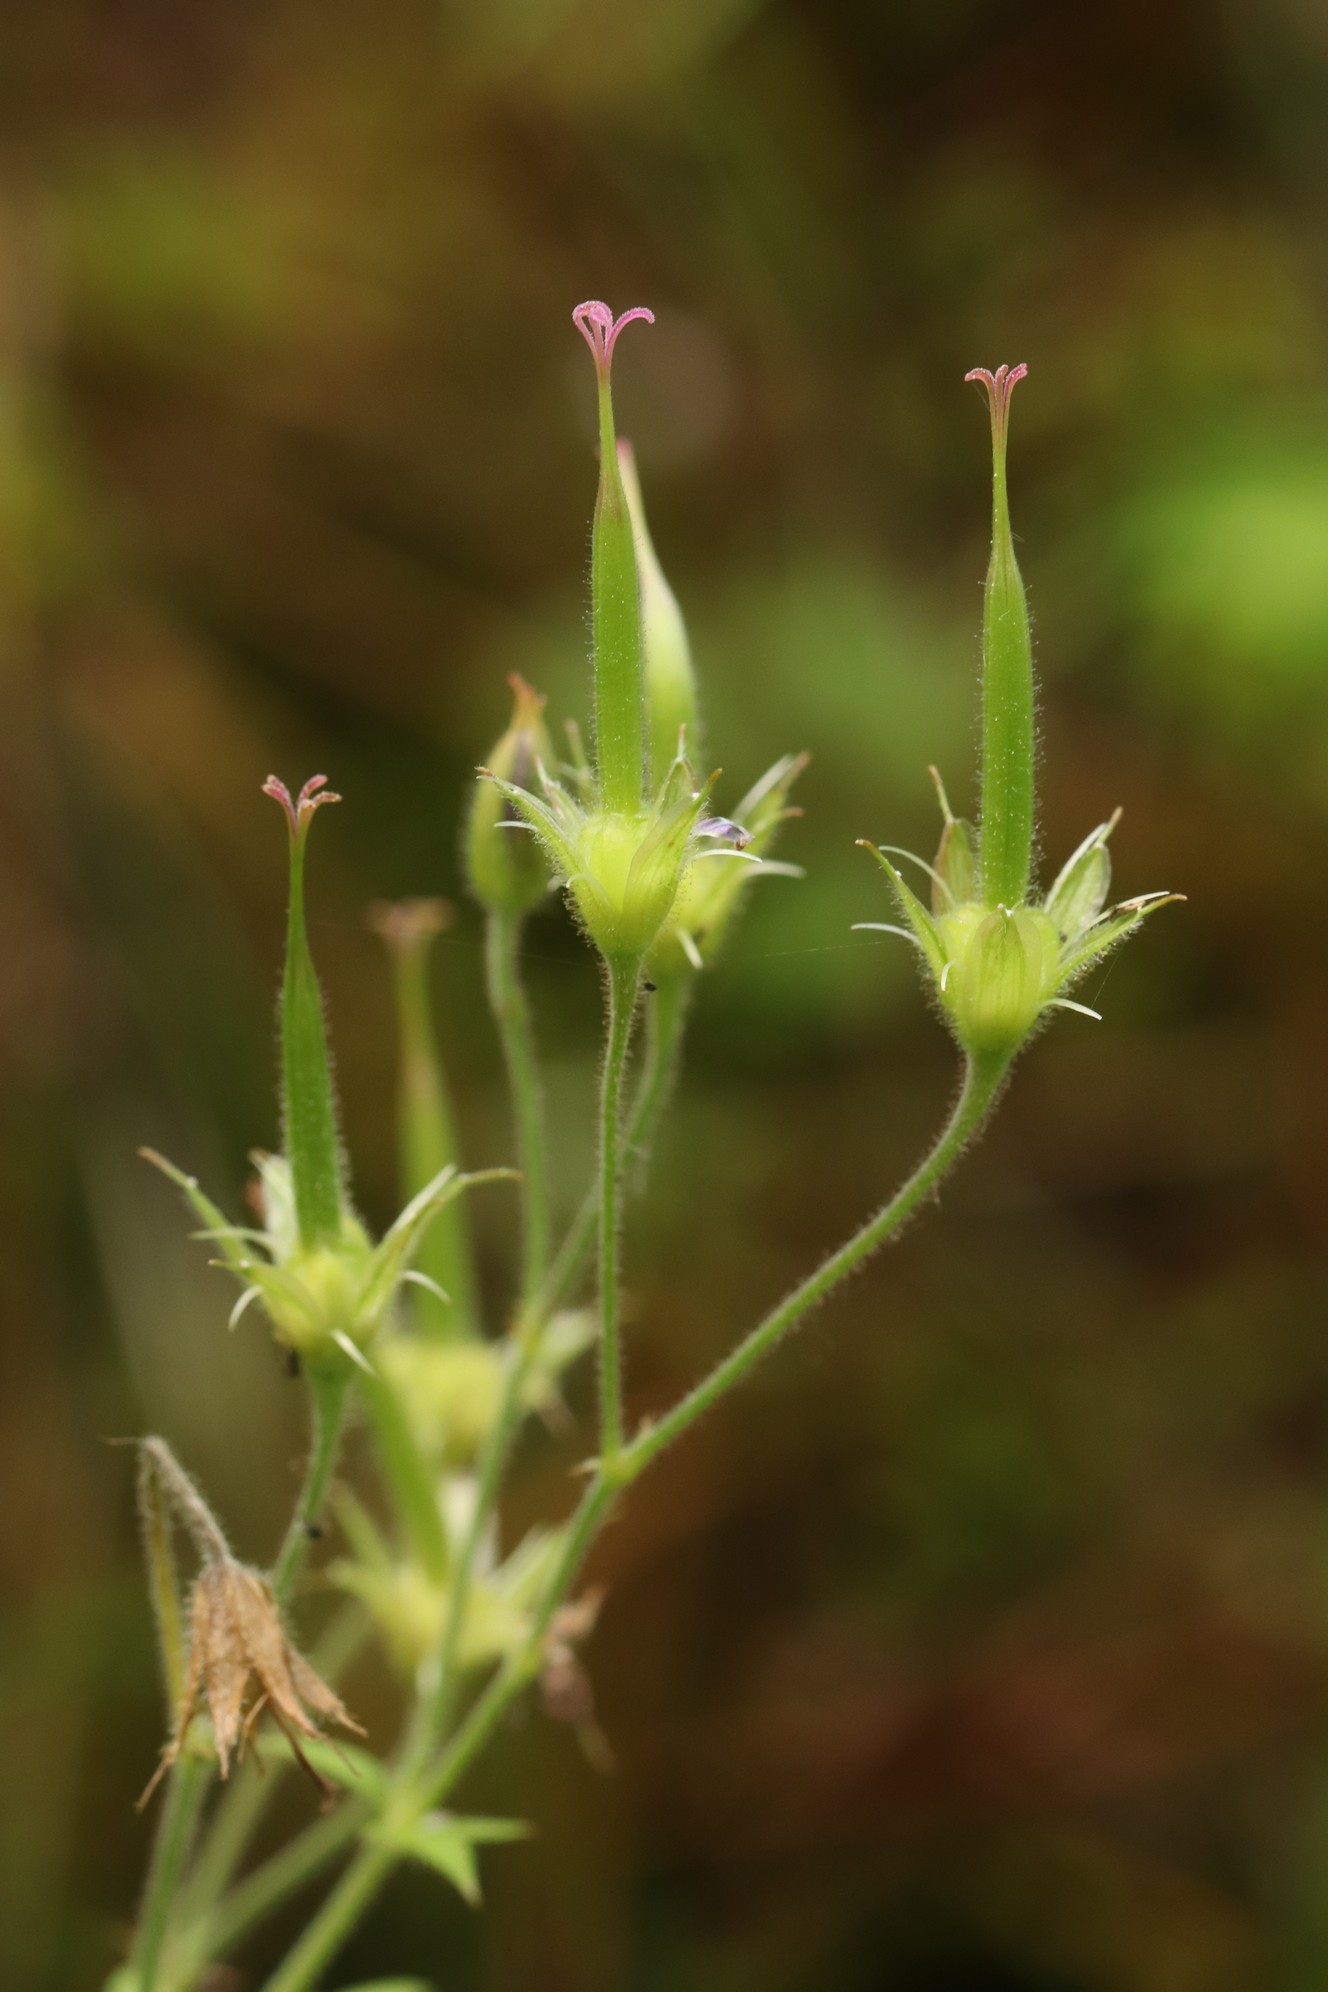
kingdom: Plantae
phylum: Tracheophyta
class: Magnoliopsida
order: Geraniales
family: Geraniaceae
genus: Geranium
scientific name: Geranium sylvaticum
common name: Wood crane's-bill
